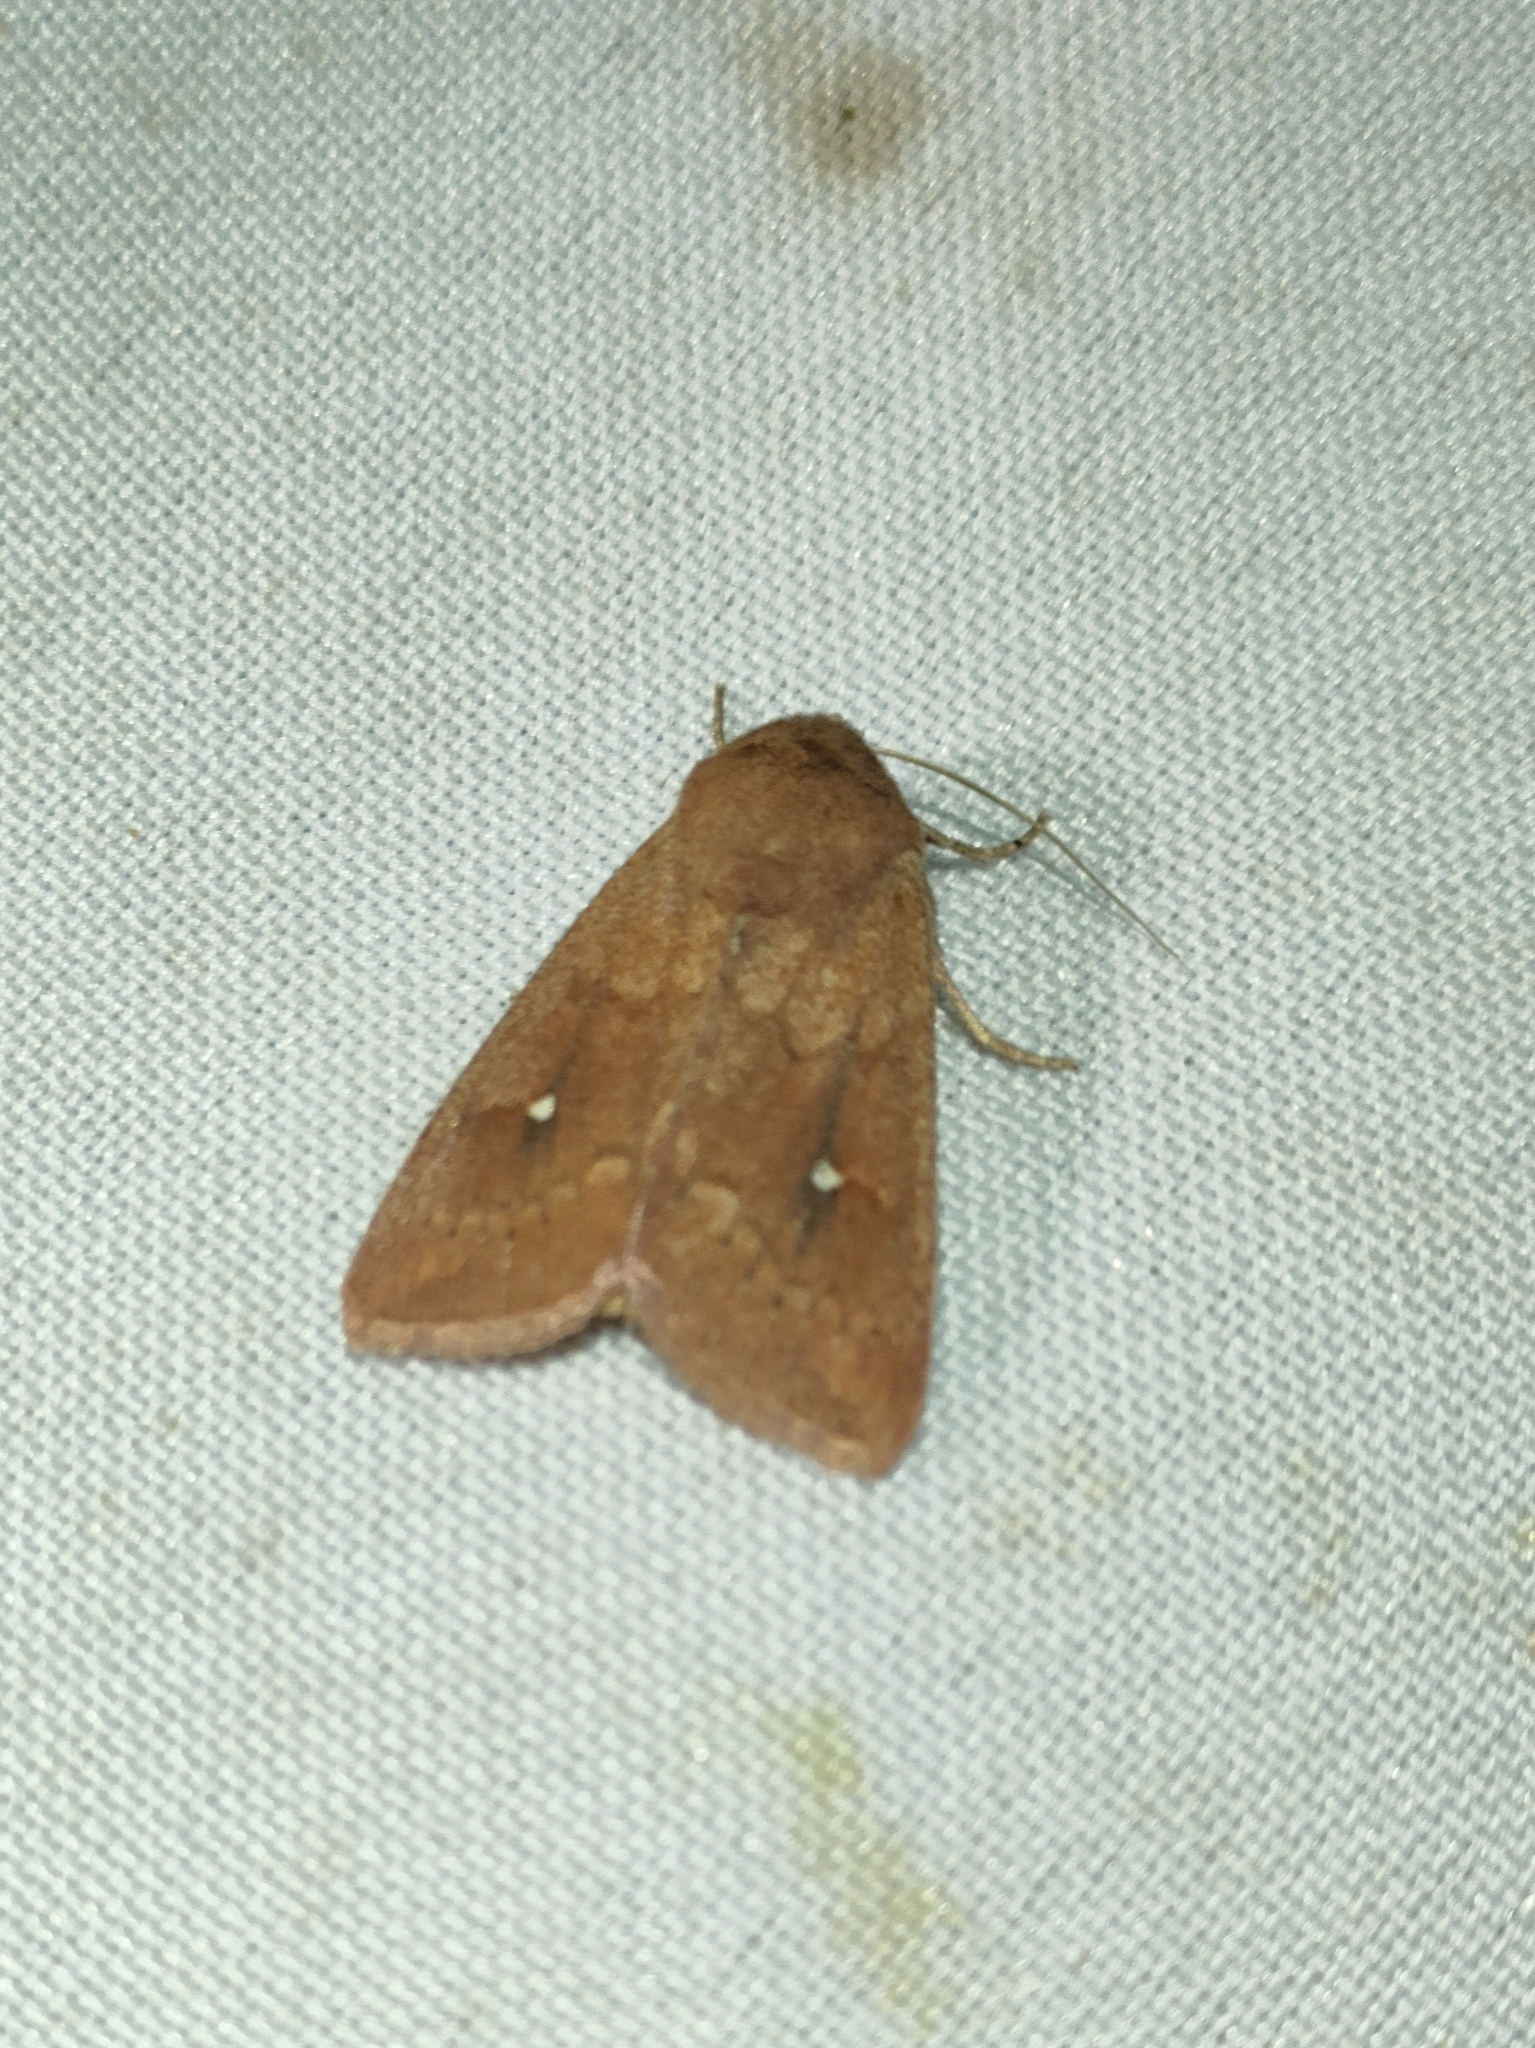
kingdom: Animalia
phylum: Arthropoda
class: Insecta
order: Lepidoptera
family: Noctuidae
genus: Mythimna
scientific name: Mythimna albipuncta
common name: White-point
